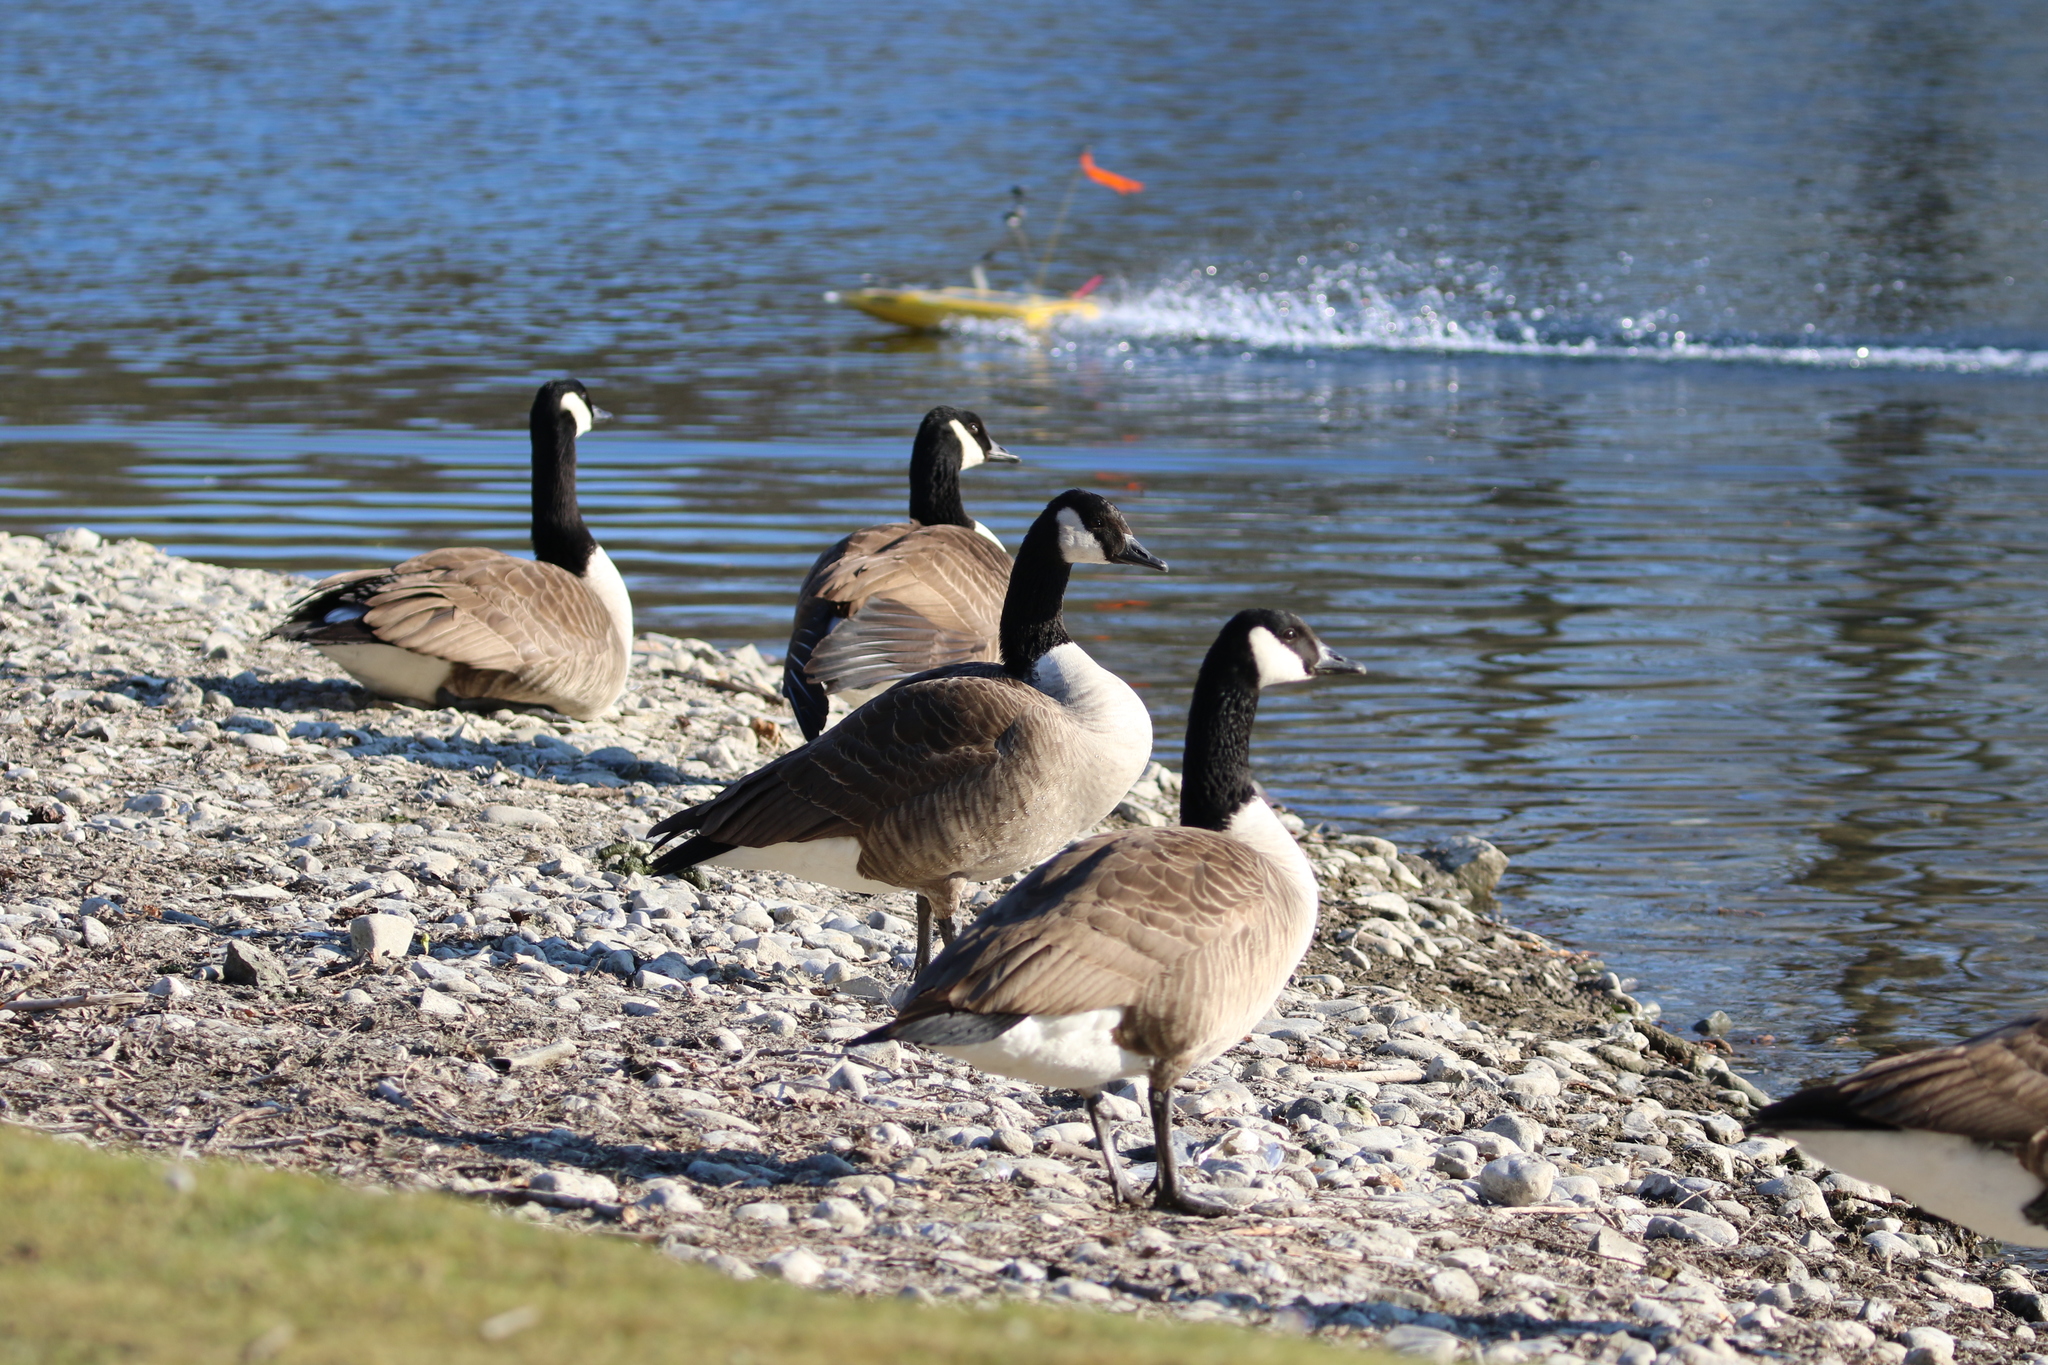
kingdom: Animalia
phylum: Chordata
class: Aves
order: Anseriformes
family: Anatidae
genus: Branta
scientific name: Branta canadensis
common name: Canada goose
